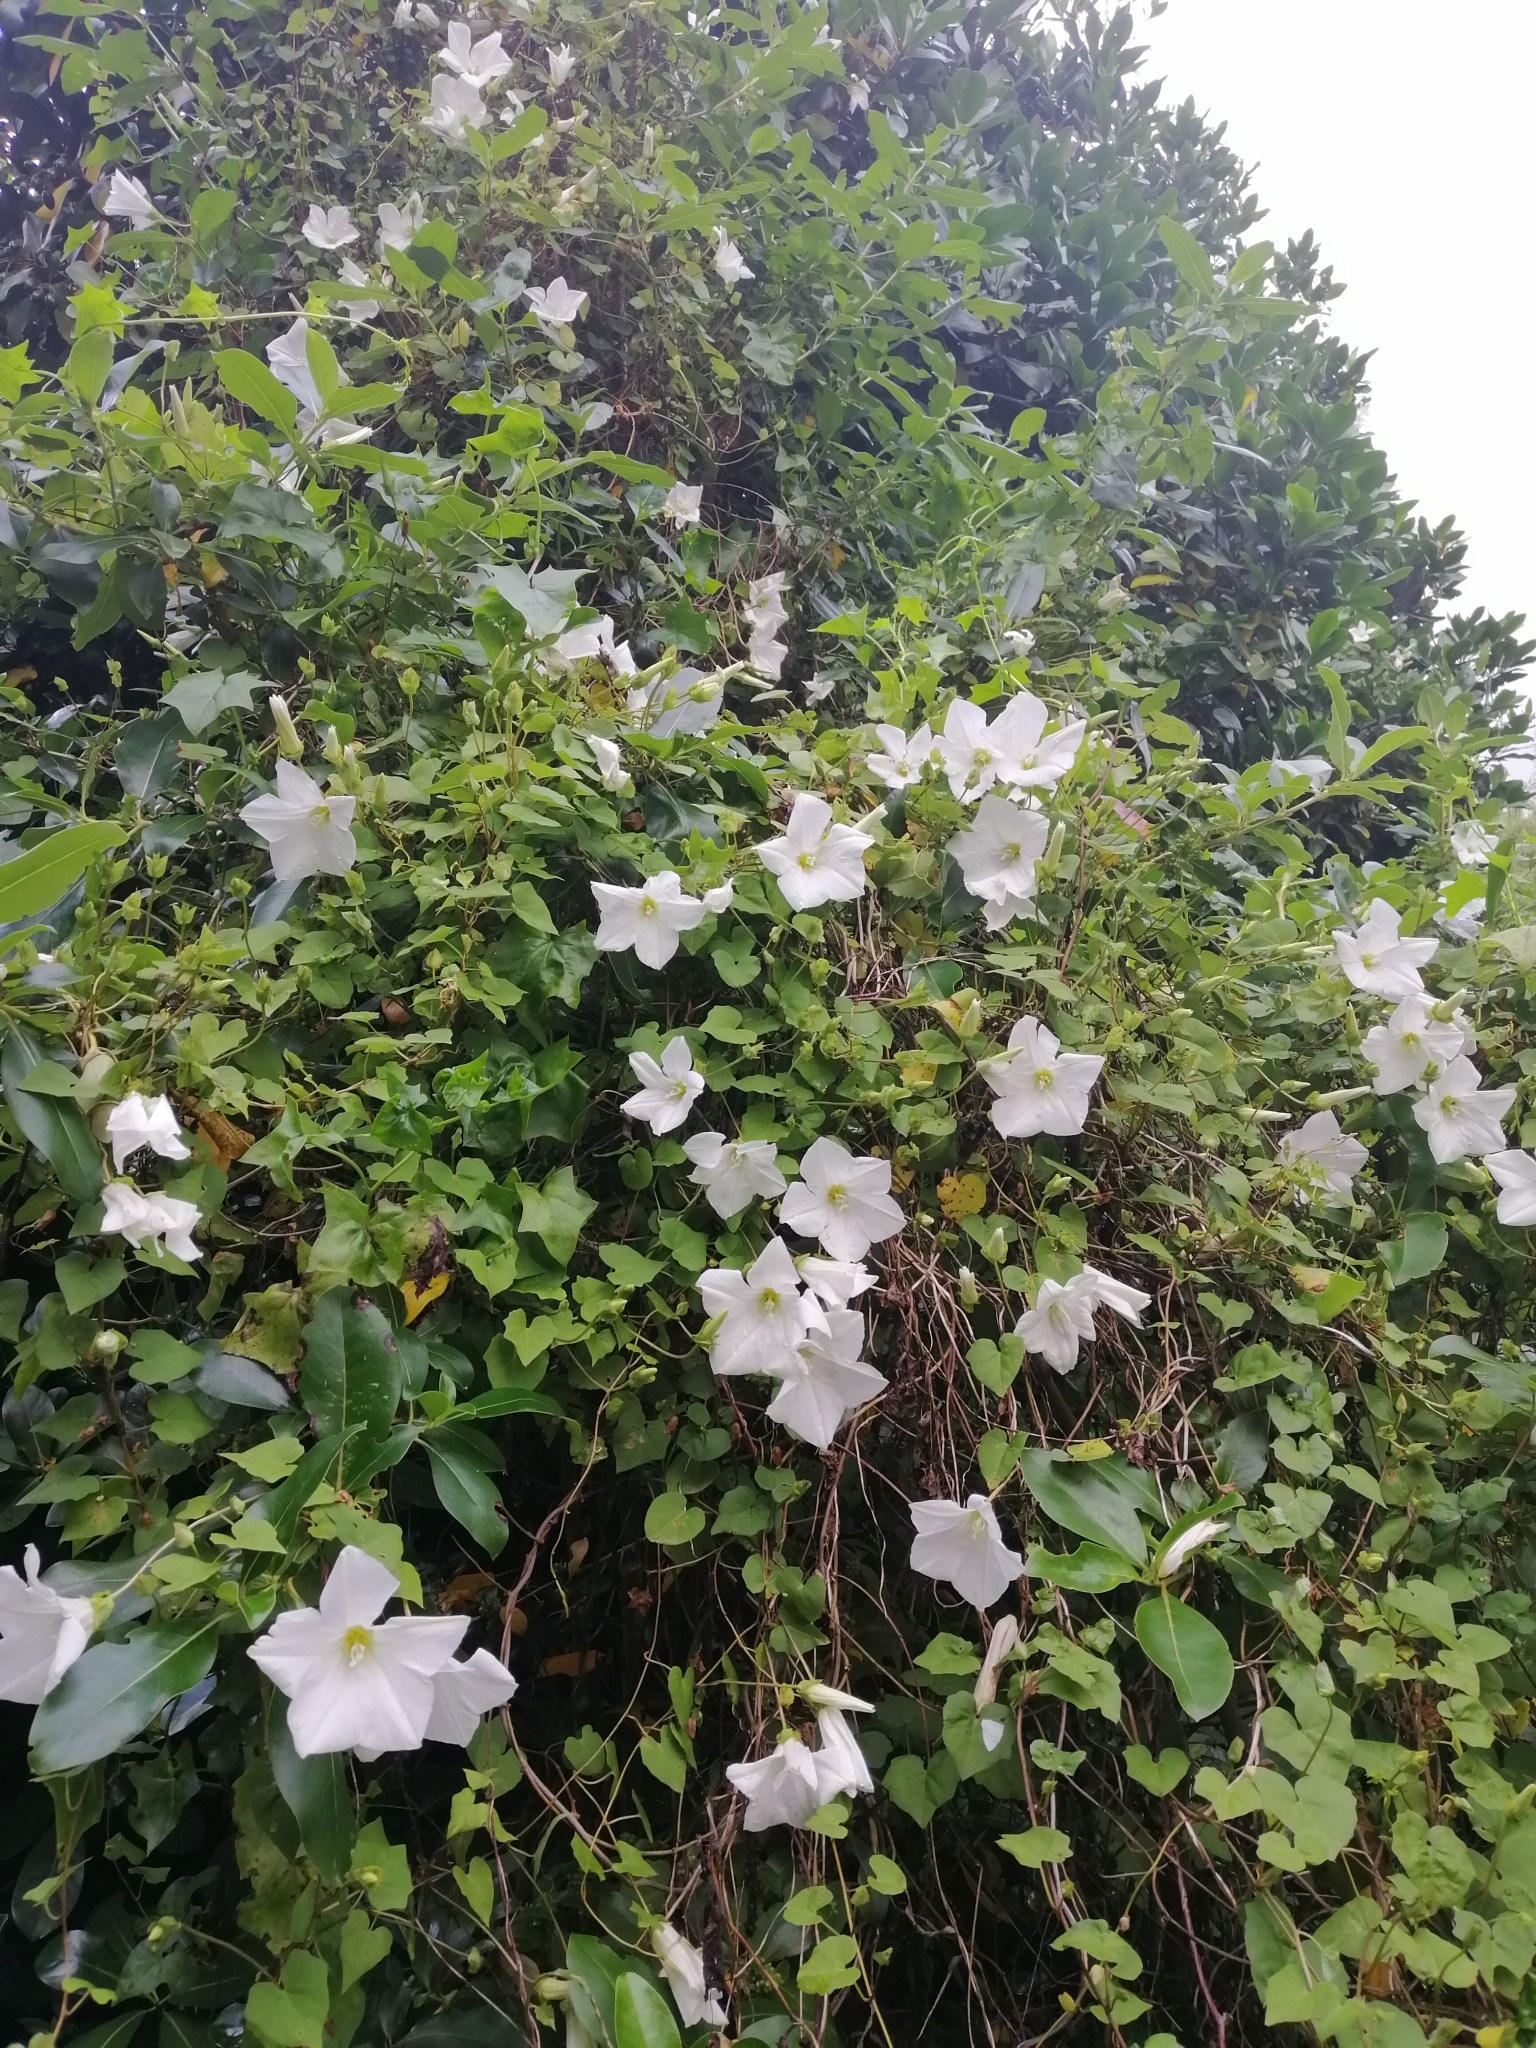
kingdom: Plantae
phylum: Tracheophyta
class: Magnoliopsida
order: Solanales
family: Convolvulaceae
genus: Calystegia
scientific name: Calystegia tuguriorum
